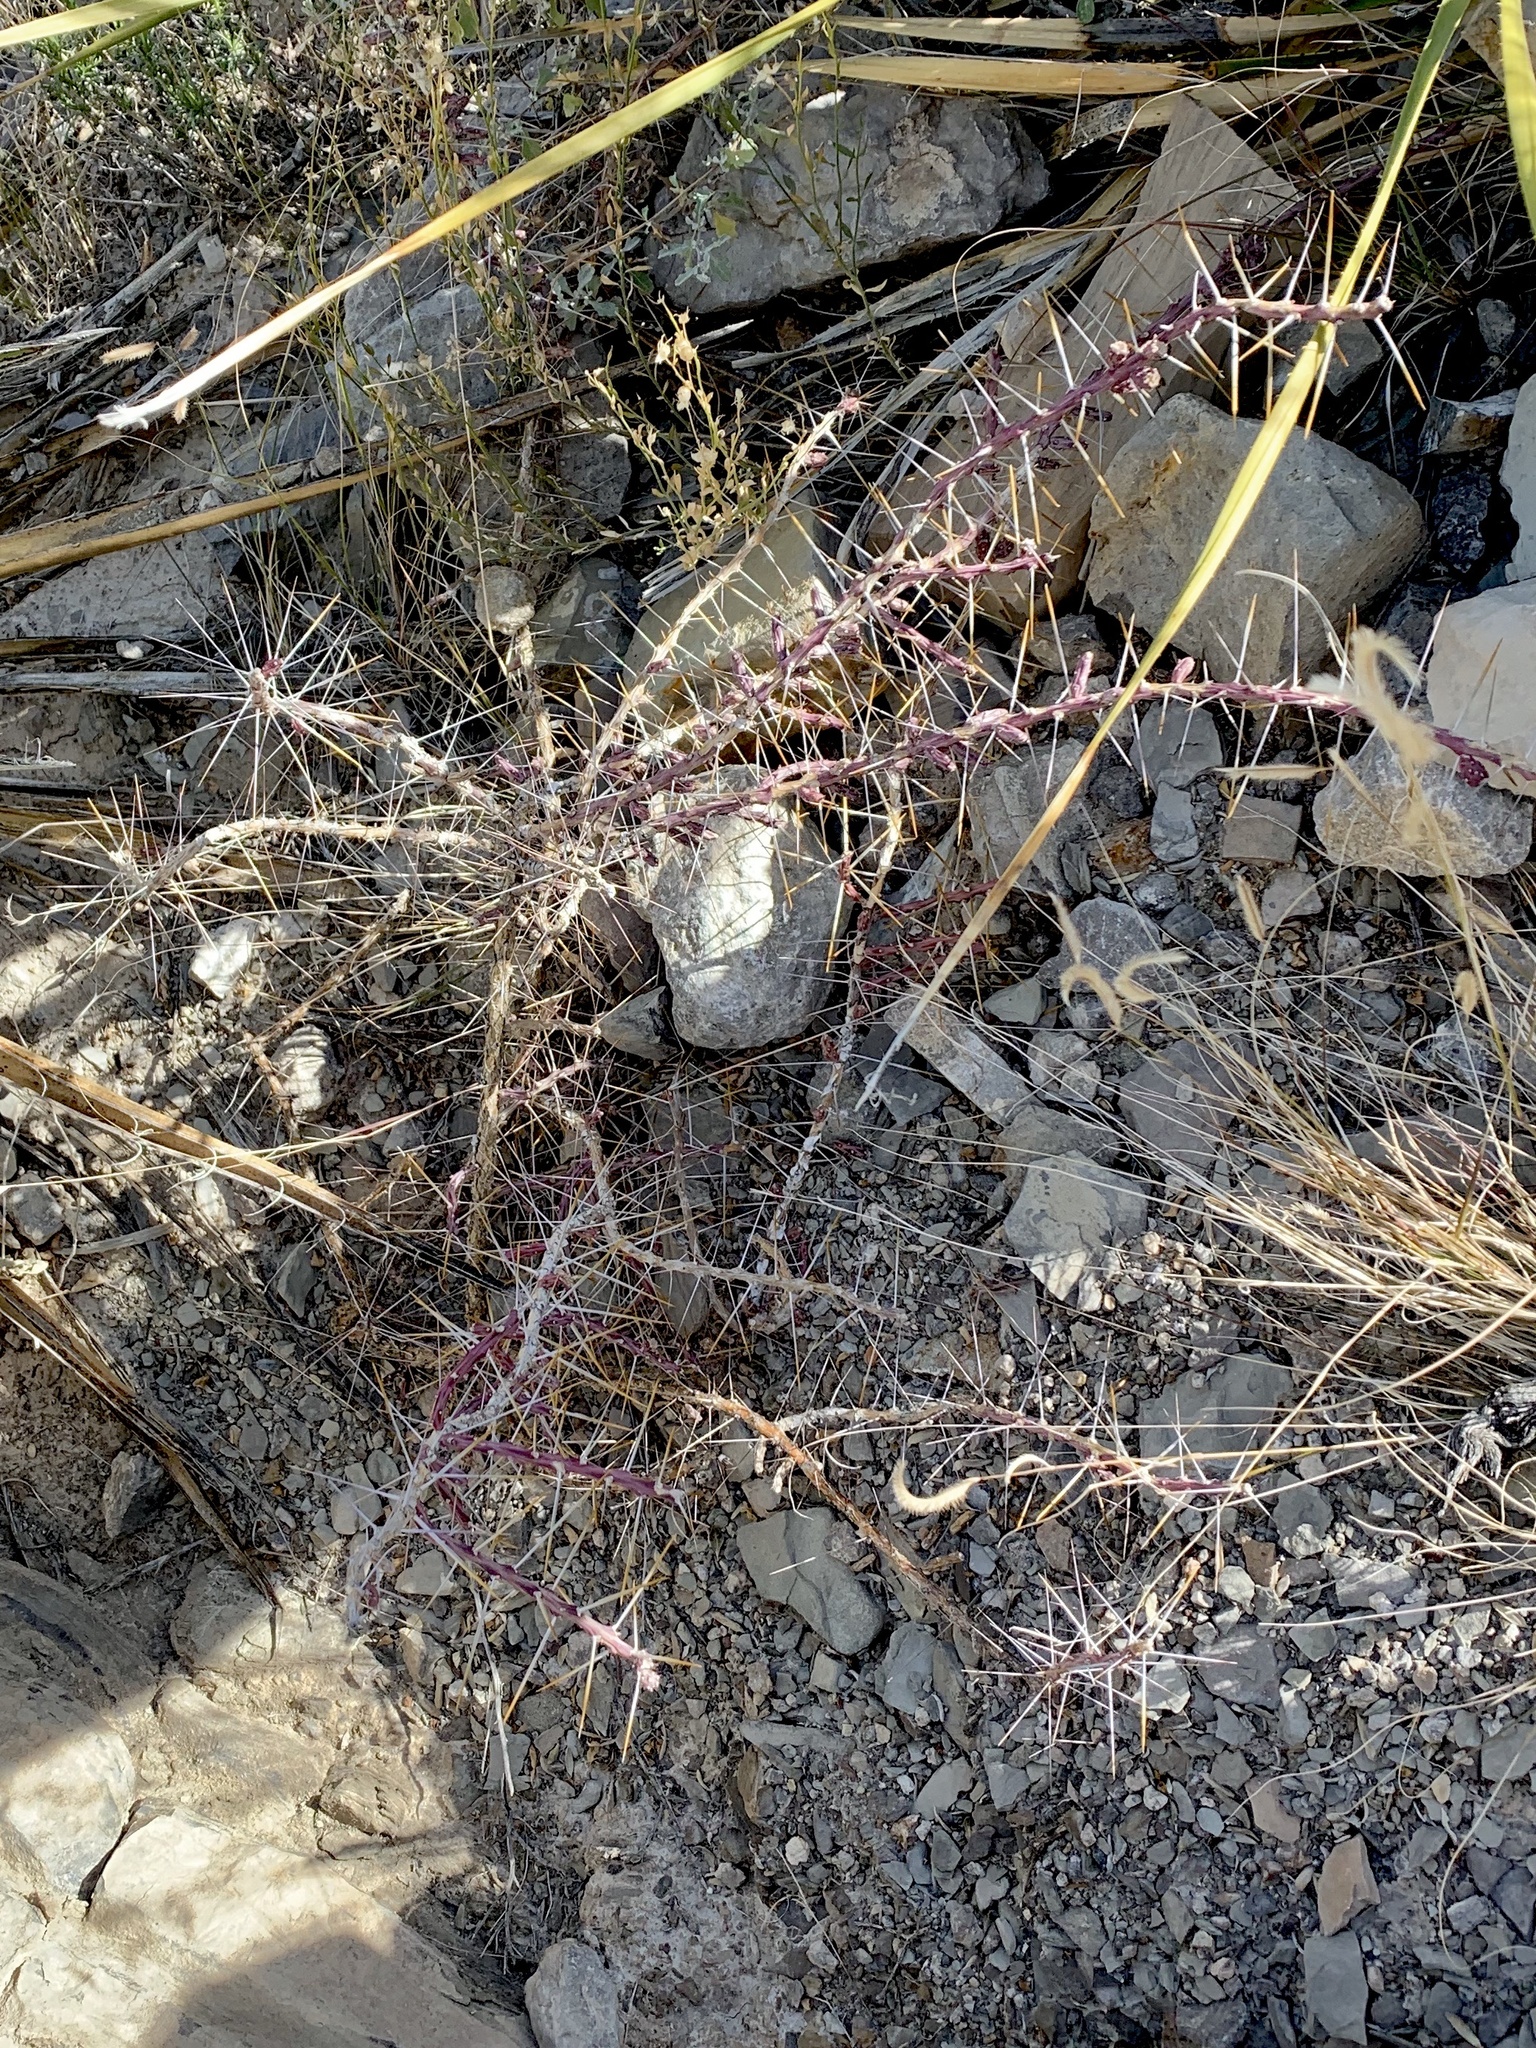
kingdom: Plantae
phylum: Tracheophyta
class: Magnoliopsida
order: Caryophyllales
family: Cactaceae
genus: Cylindropuntia
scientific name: Cylindropuntia leptocaulis
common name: Christmas cactus
